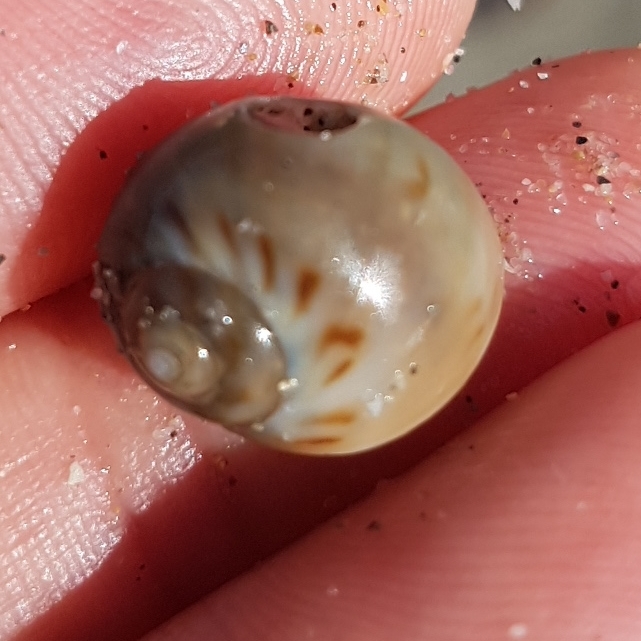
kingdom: Animalia
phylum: Mollusca
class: Gastropoda
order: Littorinimorpha
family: Naticidae
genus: Euspira
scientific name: Euspira catena
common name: Necklace shell
